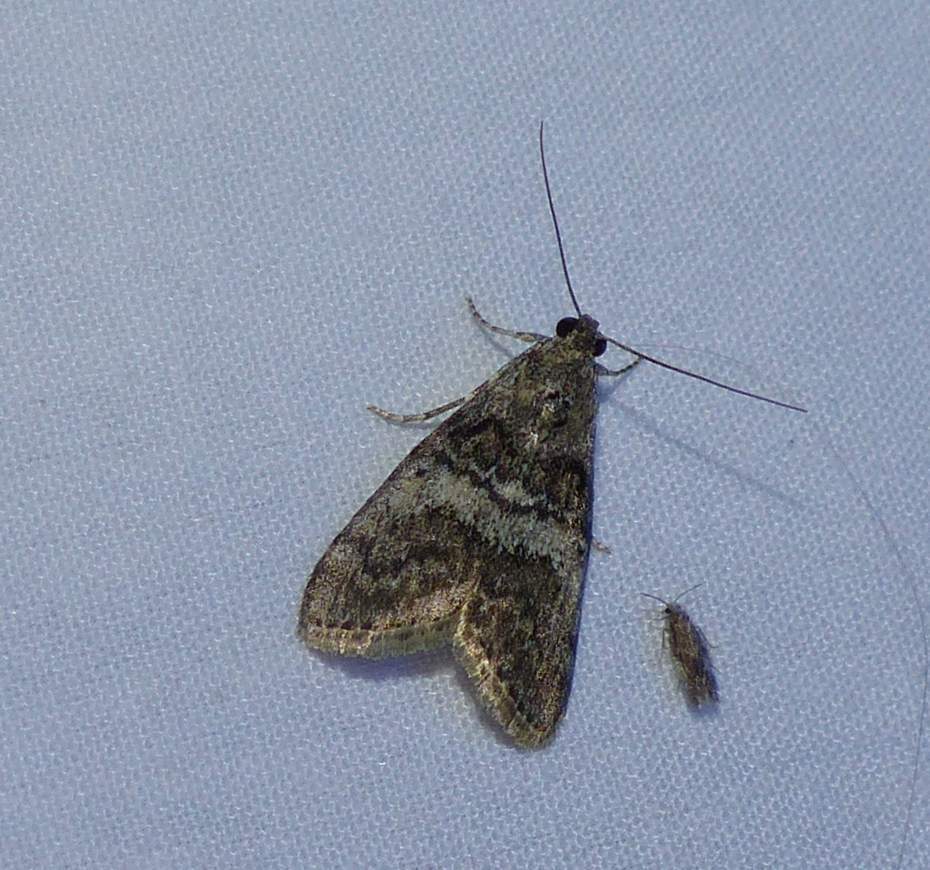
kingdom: Animalia
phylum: Arthropoda
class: Insecta
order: Lepidoptera
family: Pyralidae
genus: Pococera
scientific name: Pococera asperatella
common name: Maple webworm moth
